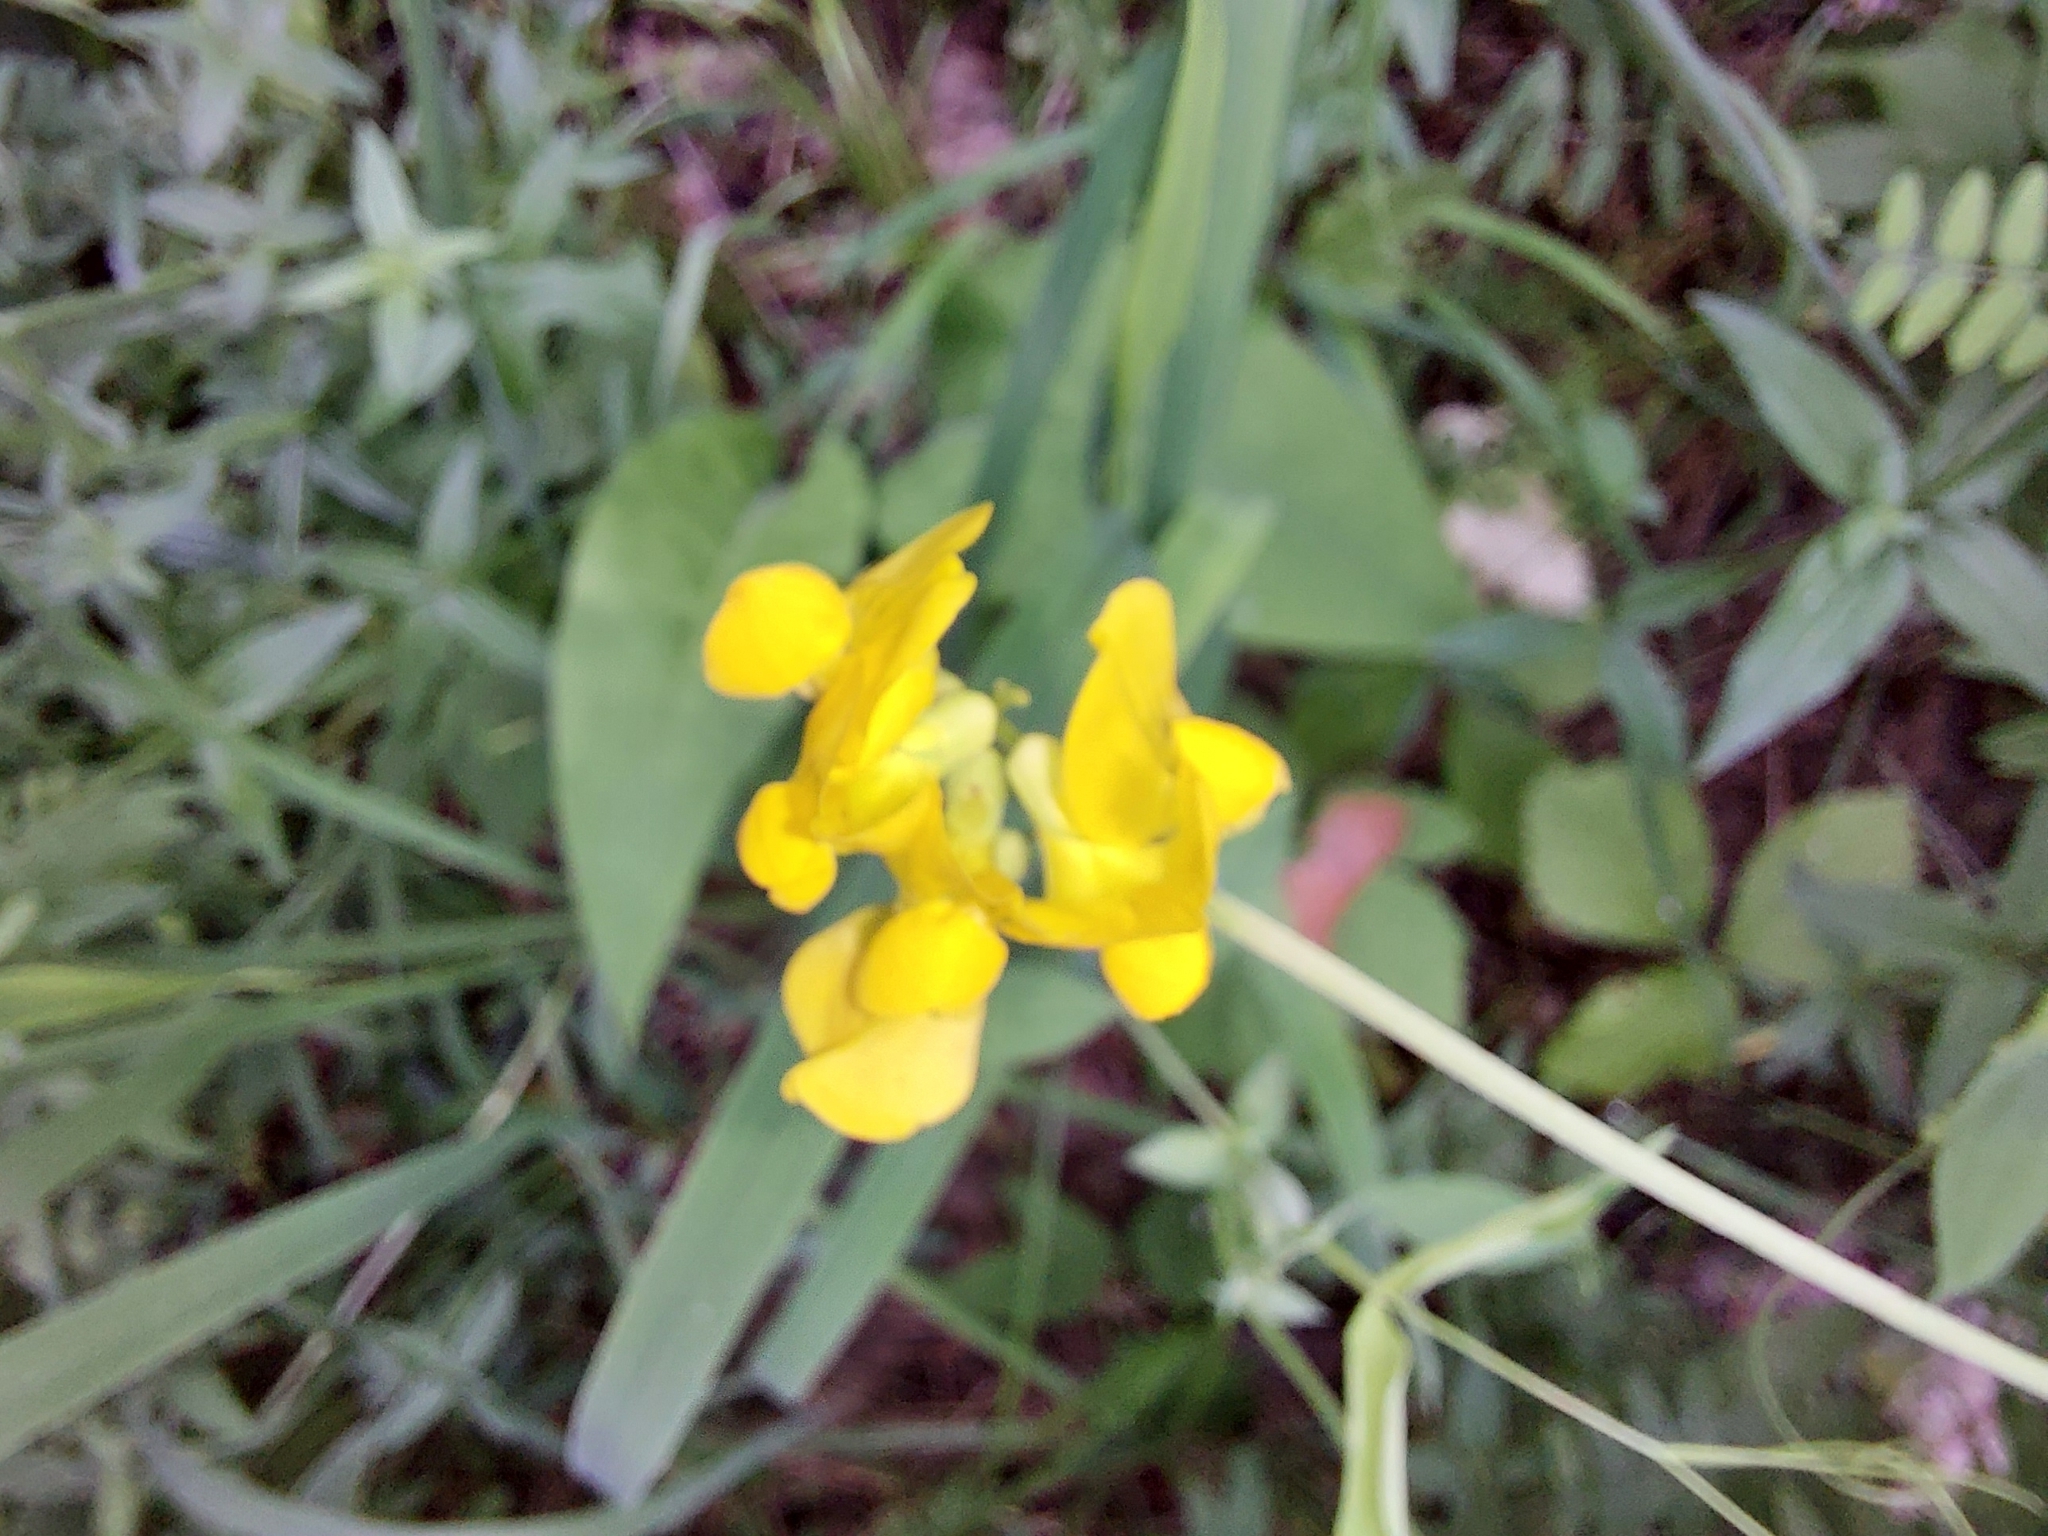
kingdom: Plantae
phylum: Tracheophyta
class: Magnoliopsida
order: Fabales
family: Fabaceae
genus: Lathyrus
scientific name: Lathyrus pratensis
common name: Meadow vetchling
